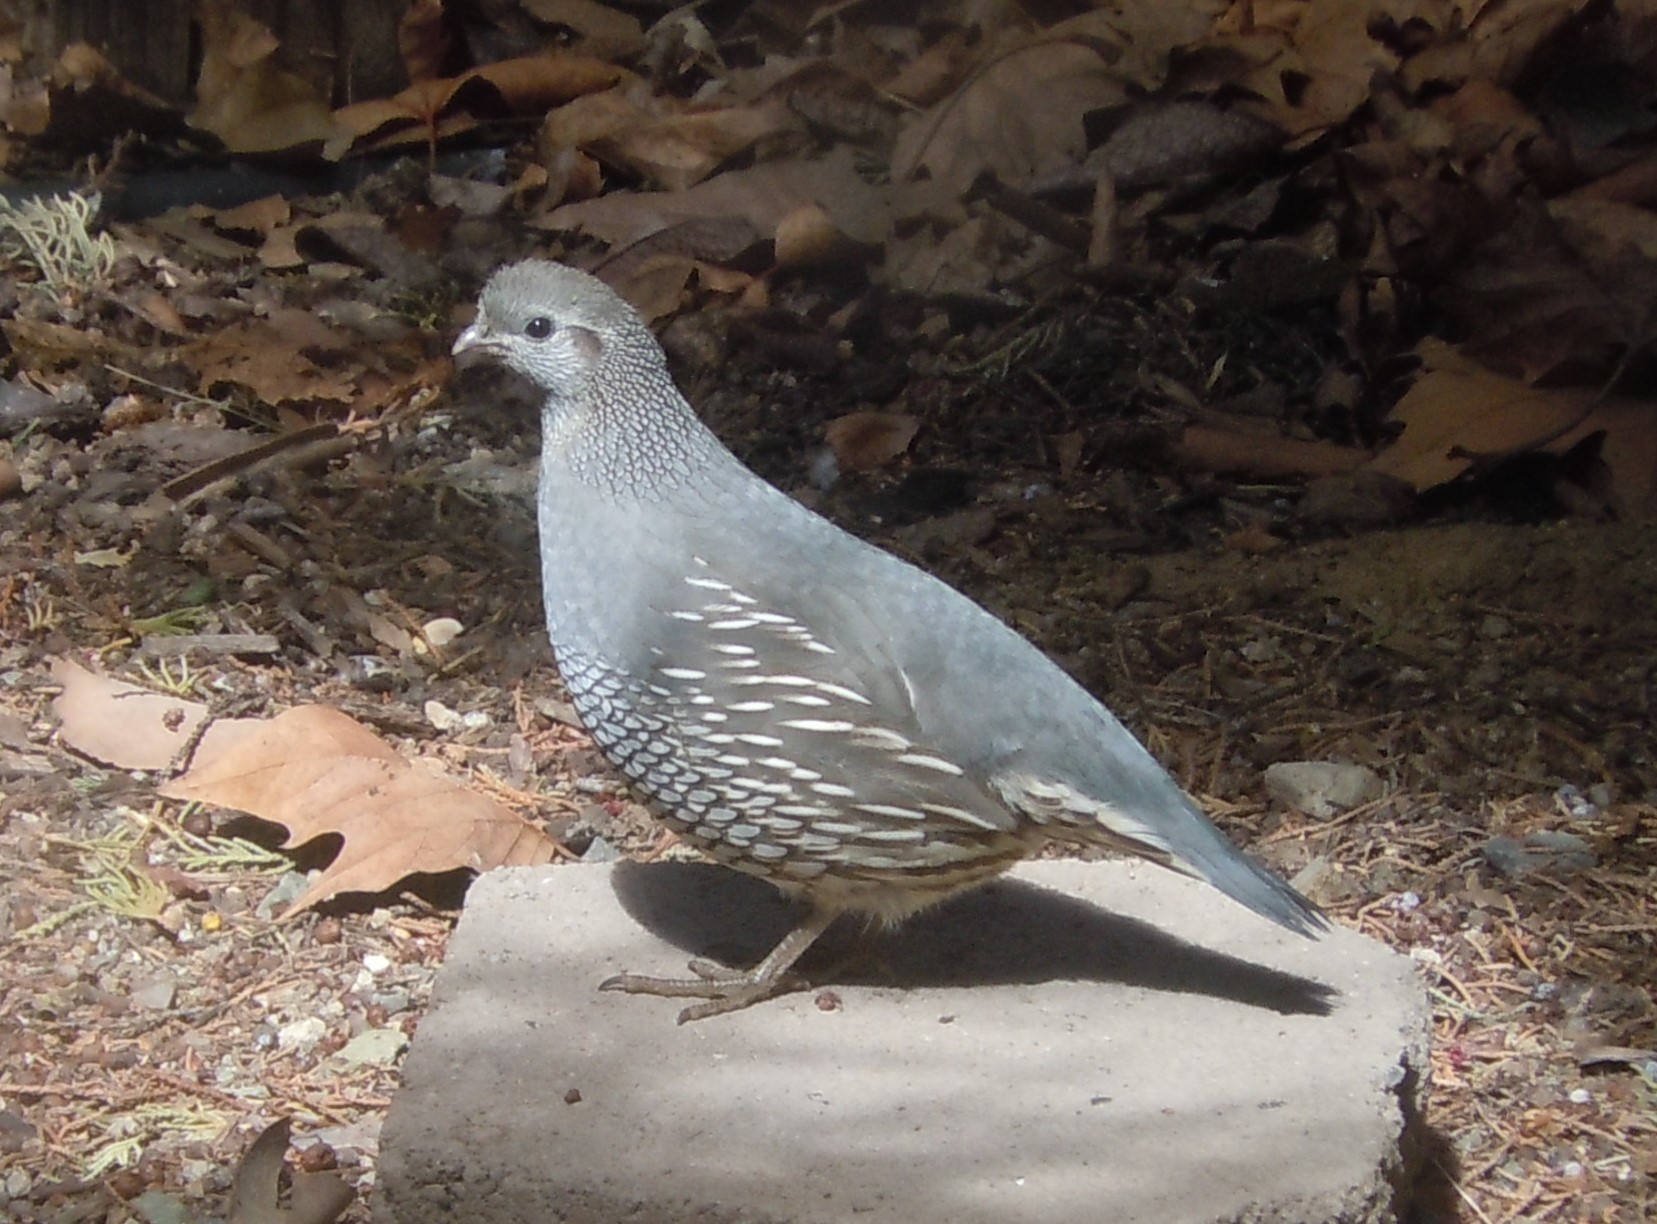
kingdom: Animalia
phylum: Chordata
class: Aves
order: Galliformes
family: Odontophoridae
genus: Callipepla
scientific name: Callipepla californica
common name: California quail
